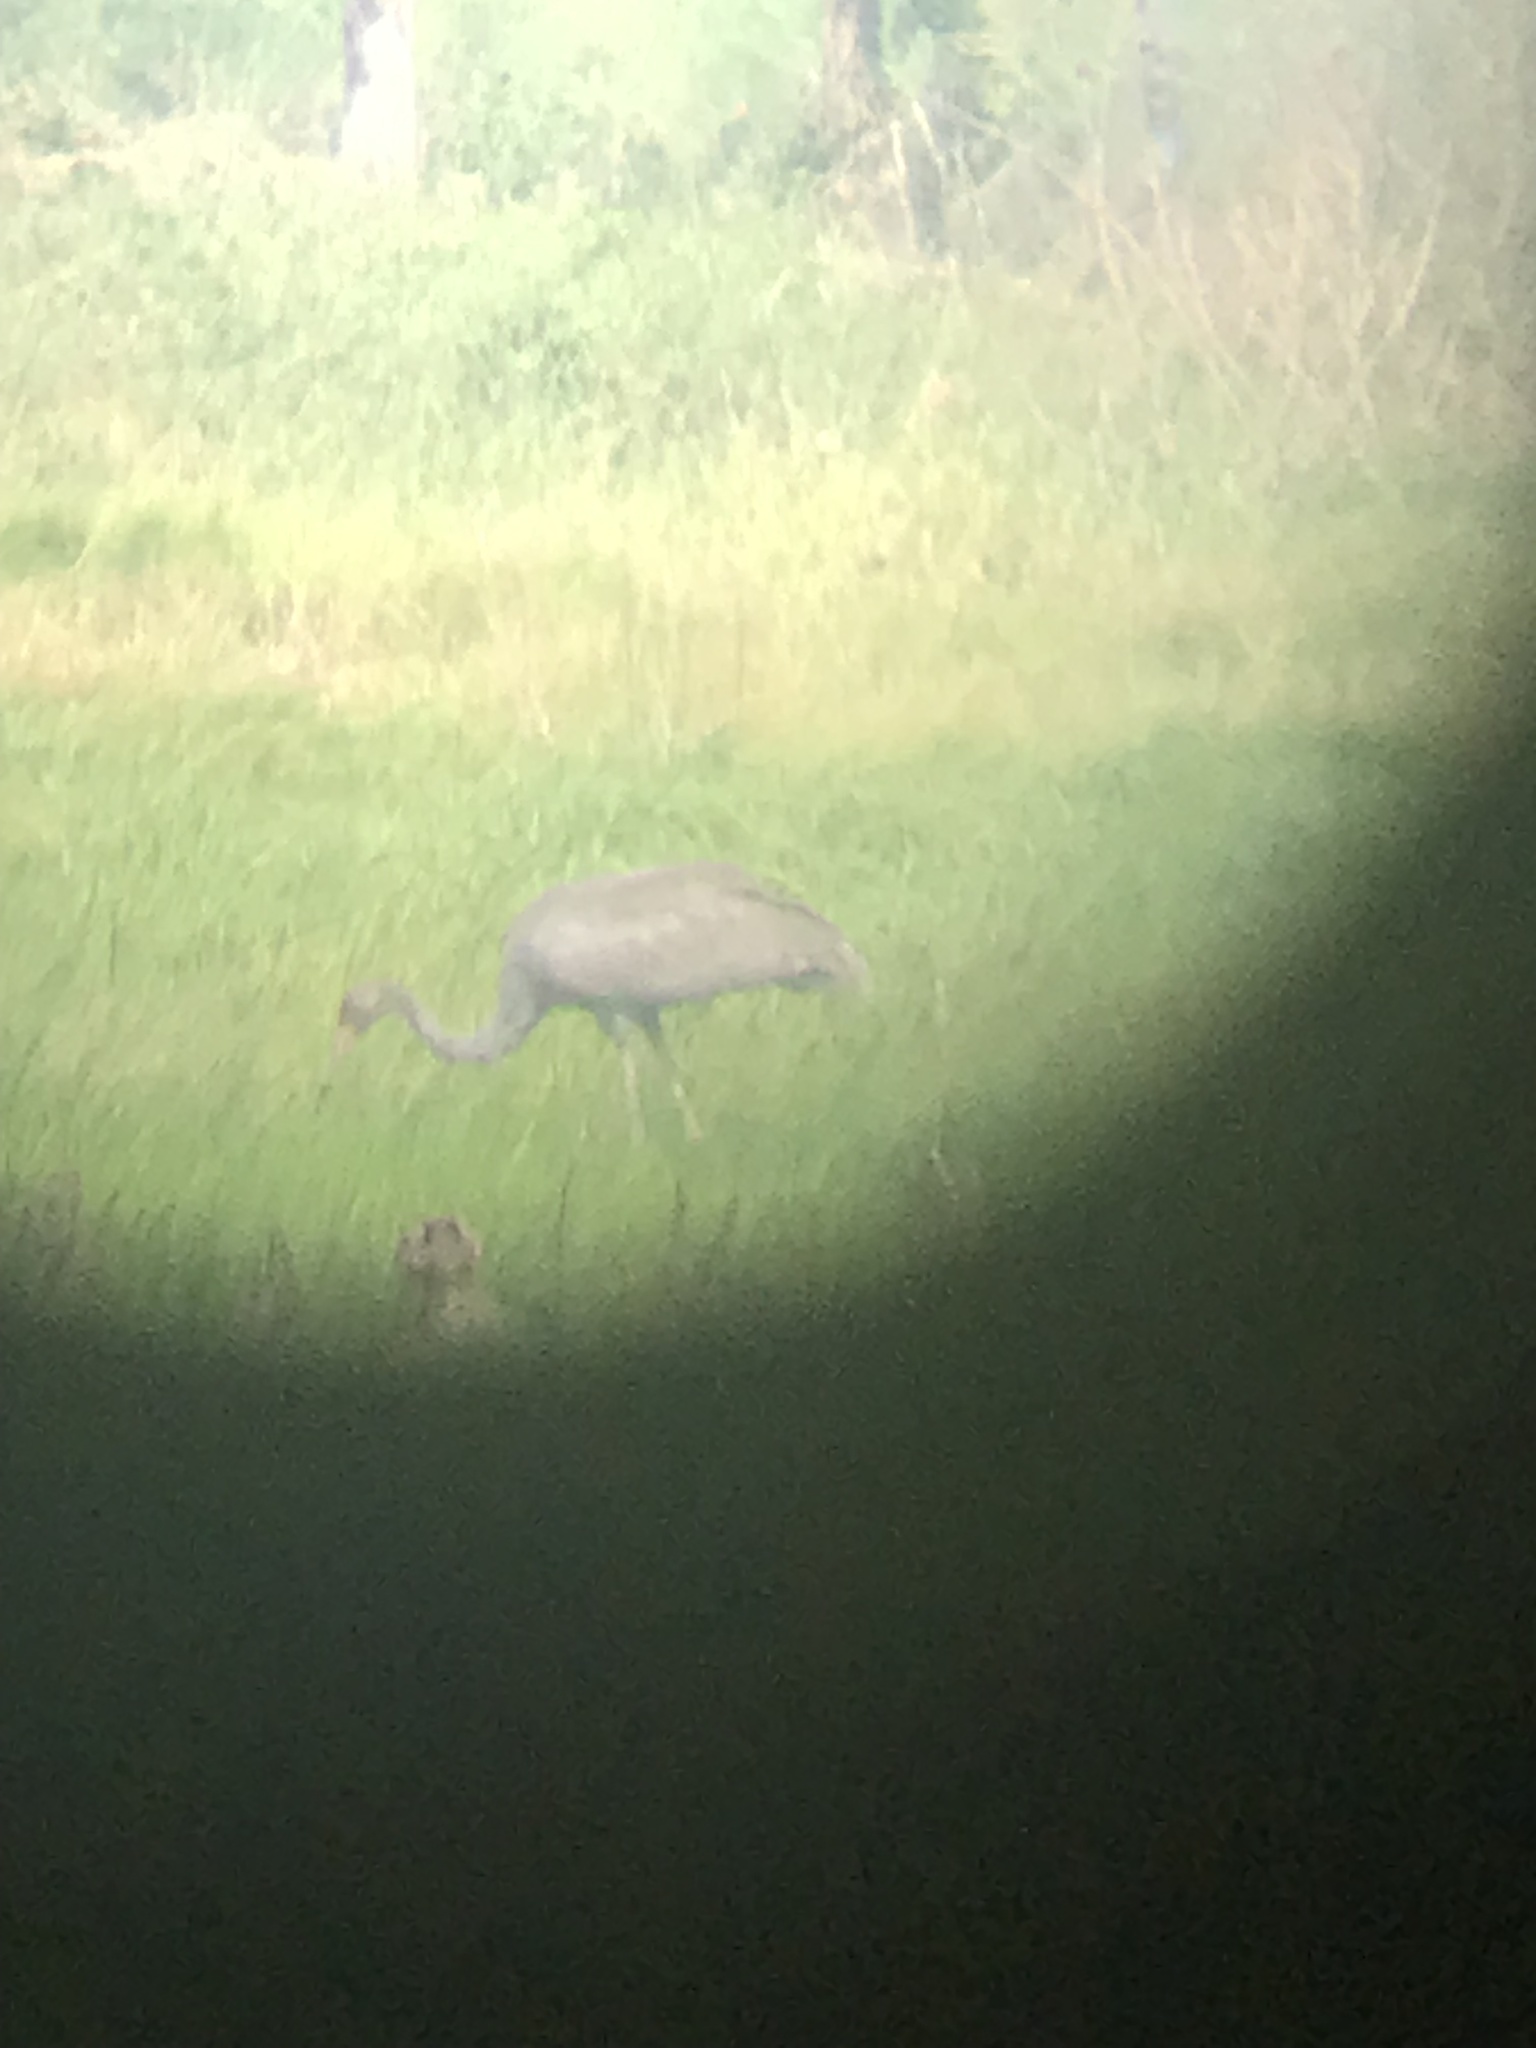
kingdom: Animalia
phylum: Chordata
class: Aves
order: Gruiformes
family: Gruidae
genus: Grus
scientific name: Grus antigone
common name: Sarus crane
